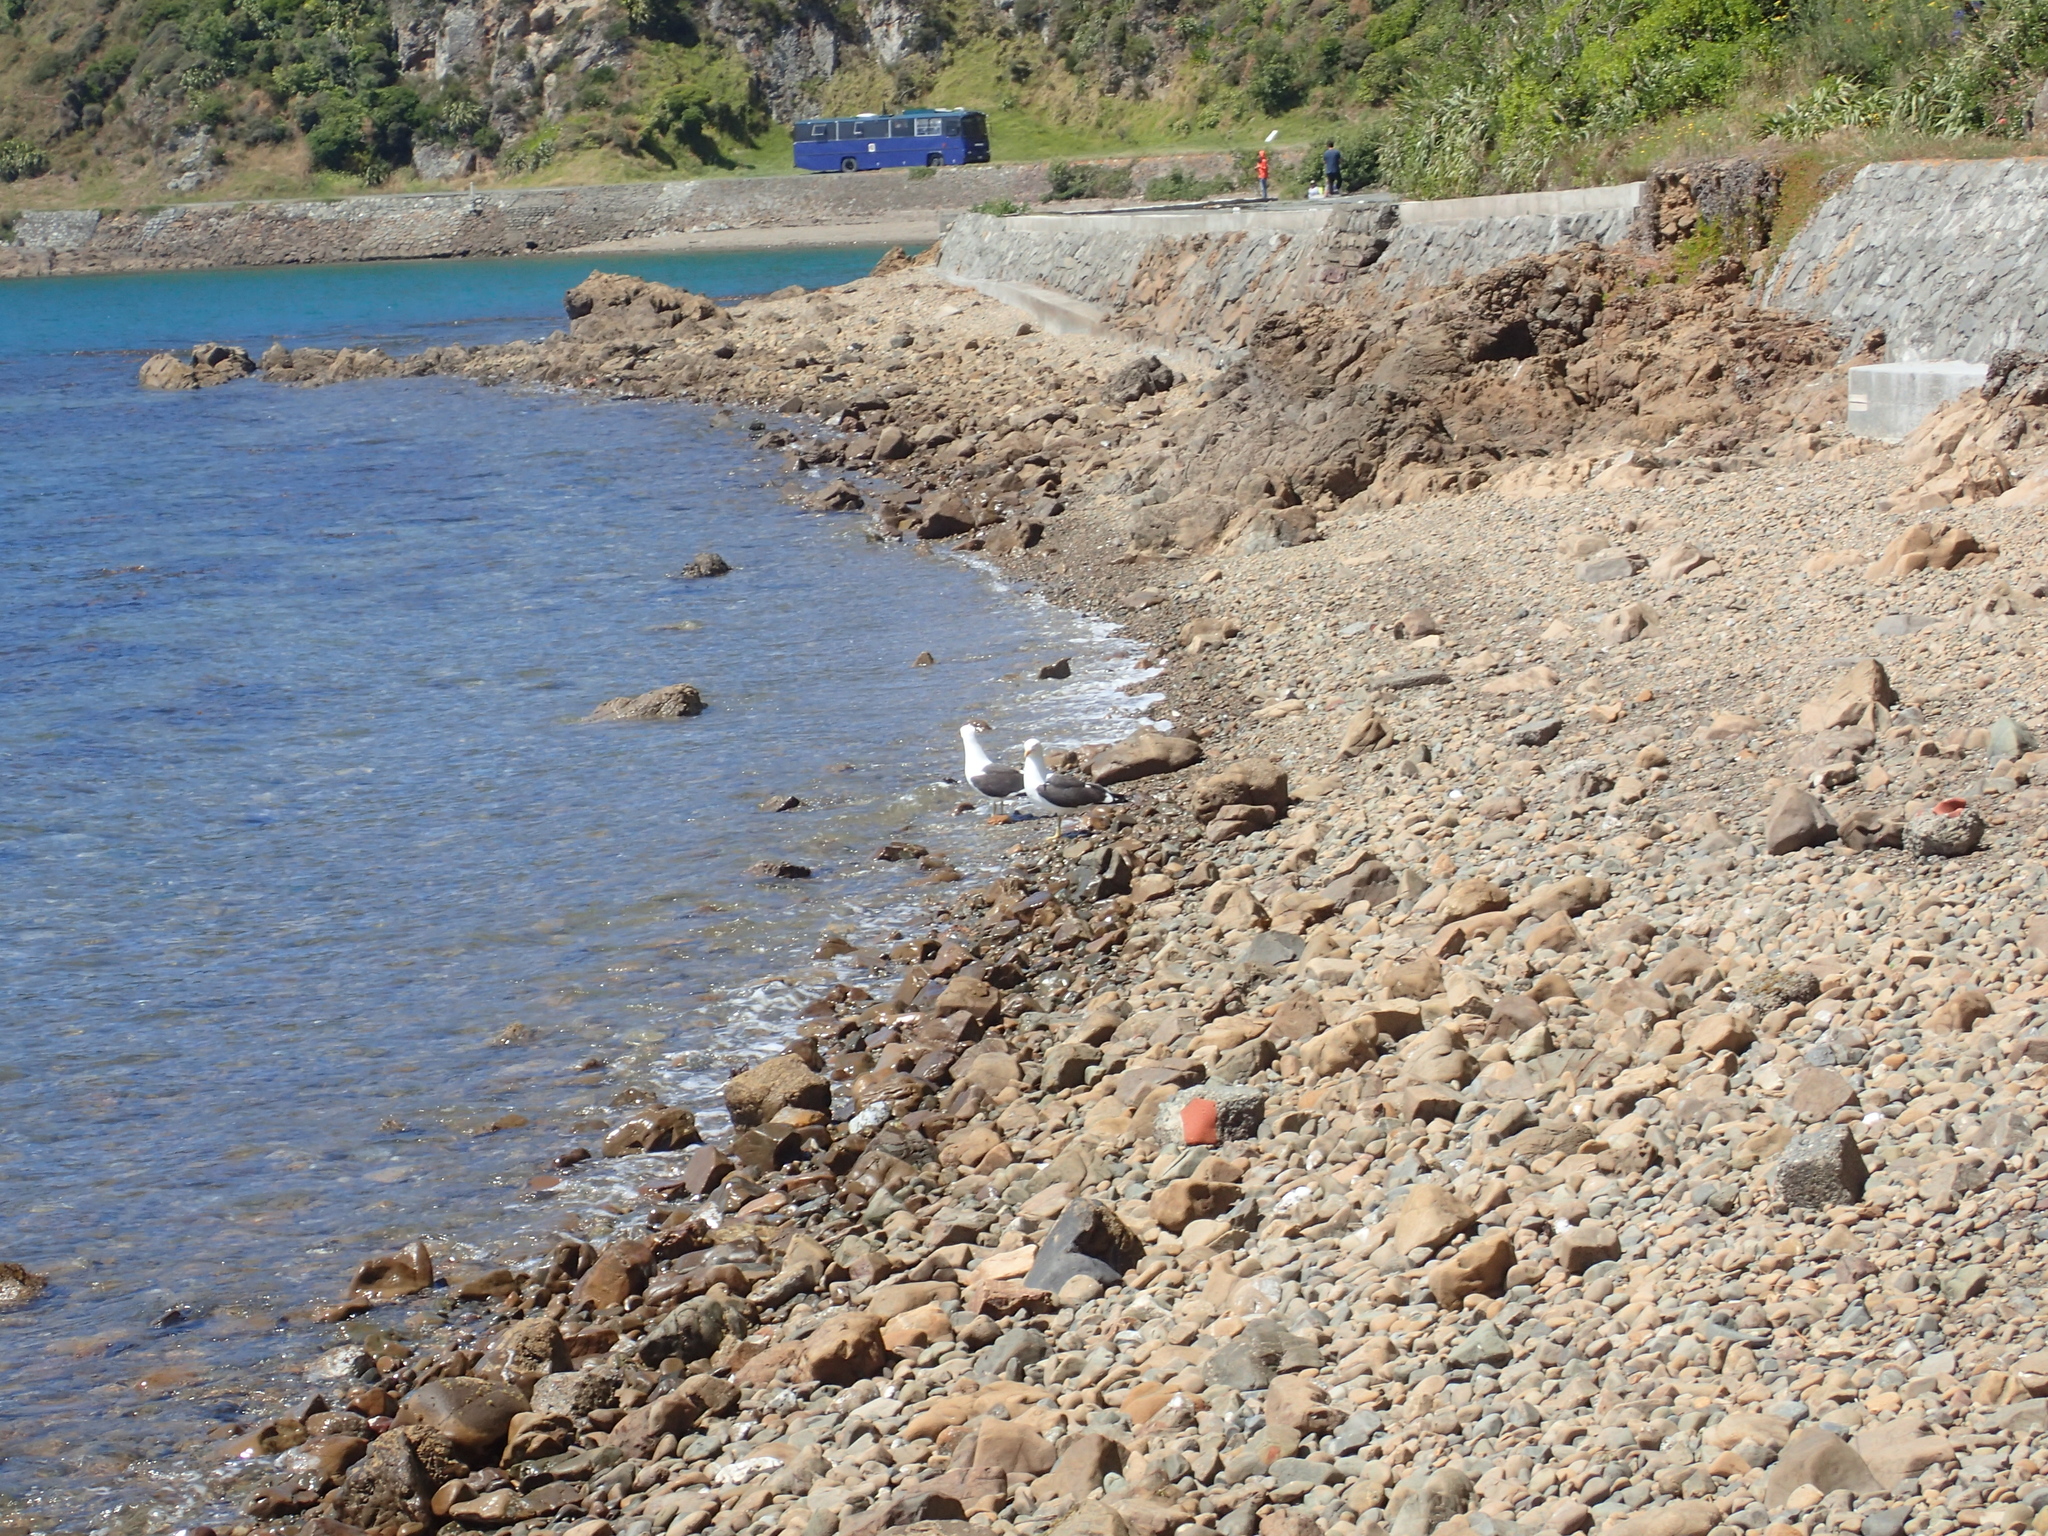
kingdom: Animalia
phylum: Chordata
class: Aves
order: Charadriiformes
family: Laridae
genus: Larus
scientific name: Larus dominicanus
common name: Kelp gull
